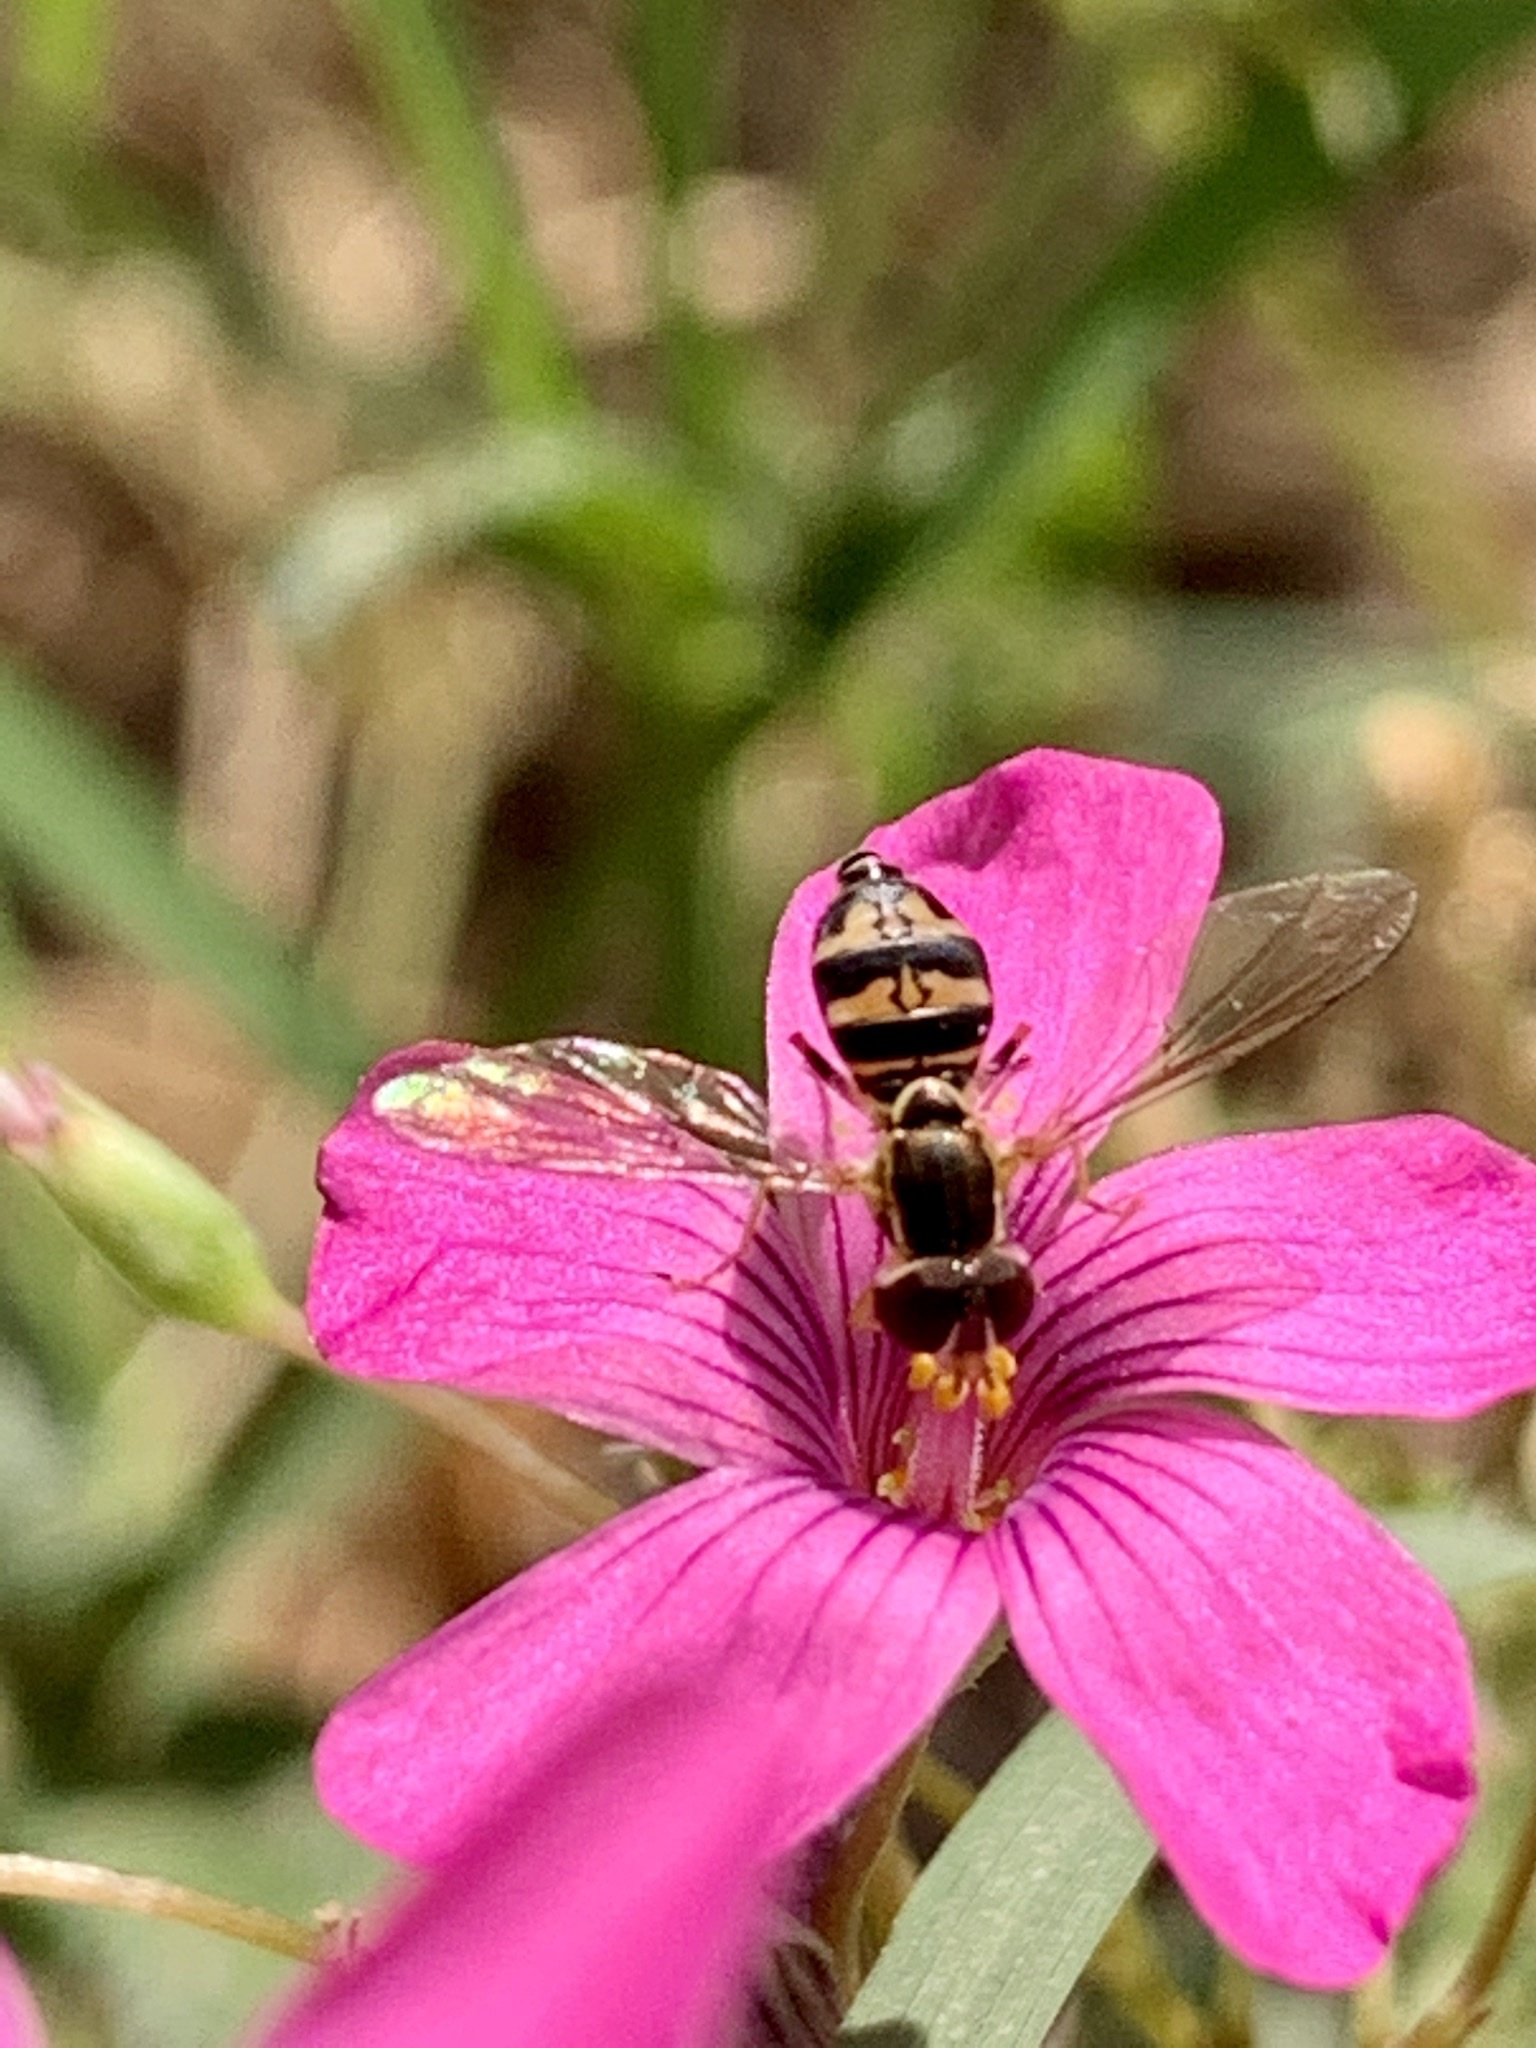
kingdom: Animalia
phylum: Arthropoda
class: Insecta
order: Diptera
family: Syrphidae
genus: Toxomerus
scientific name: Toxomerus occidentalis
